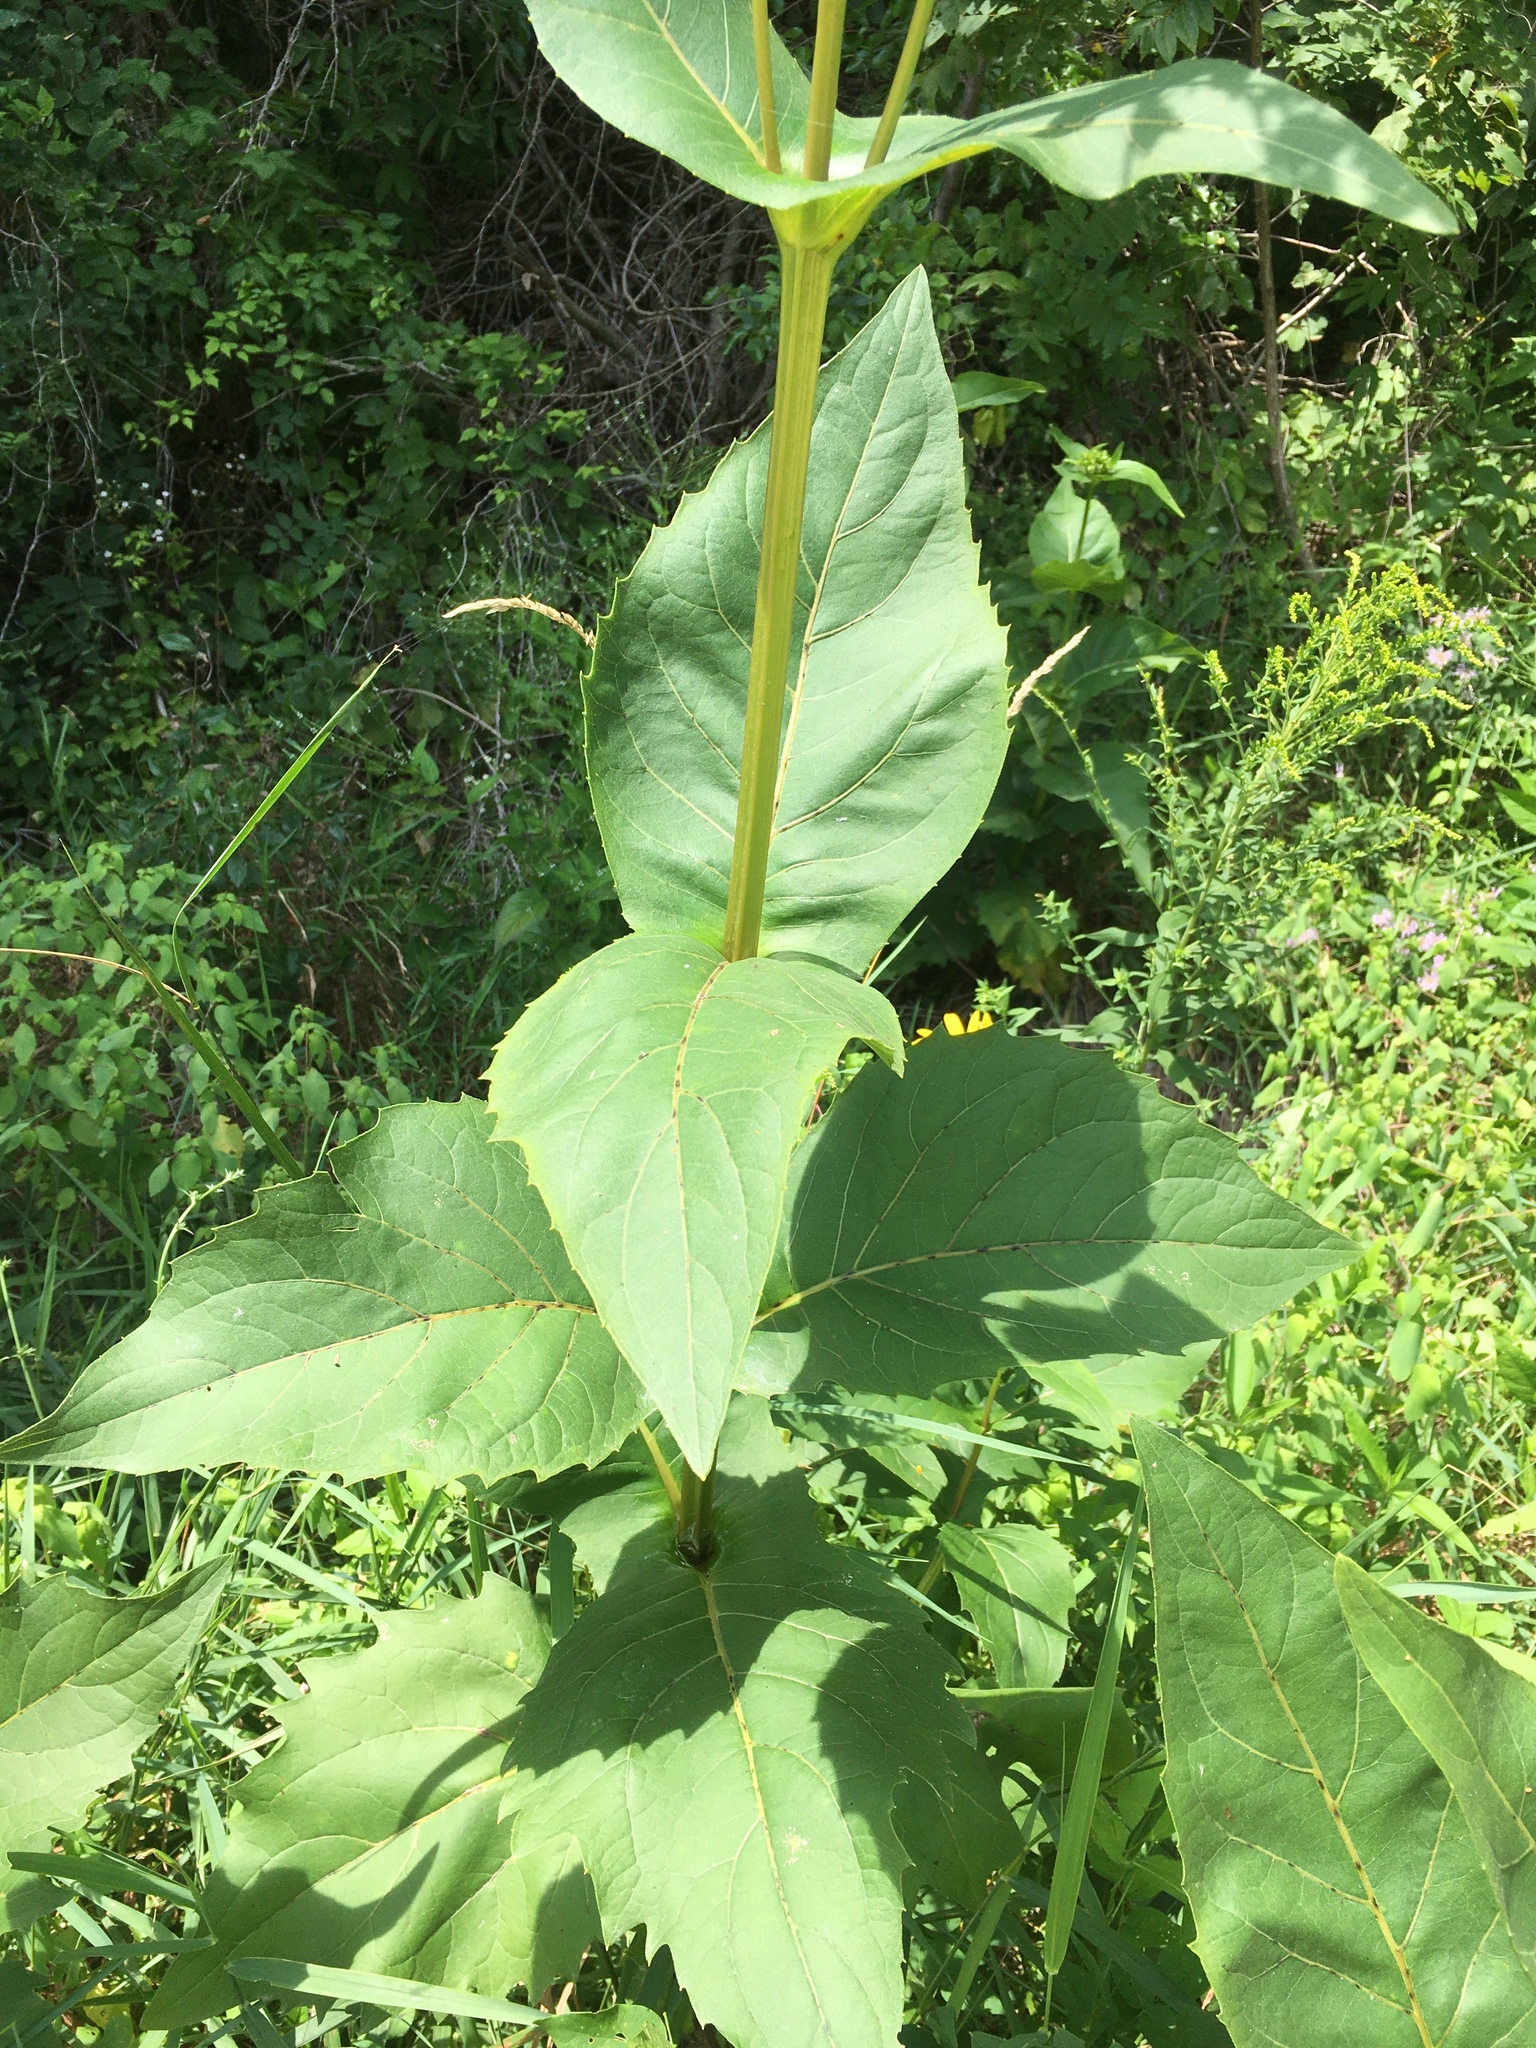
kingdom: Plantae
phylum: Tracheophyta
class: Magnoliopsida
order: Asterales
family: Asteraceae
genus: Silphium
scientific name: Silphium perfoliatum
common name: Cup-plant
